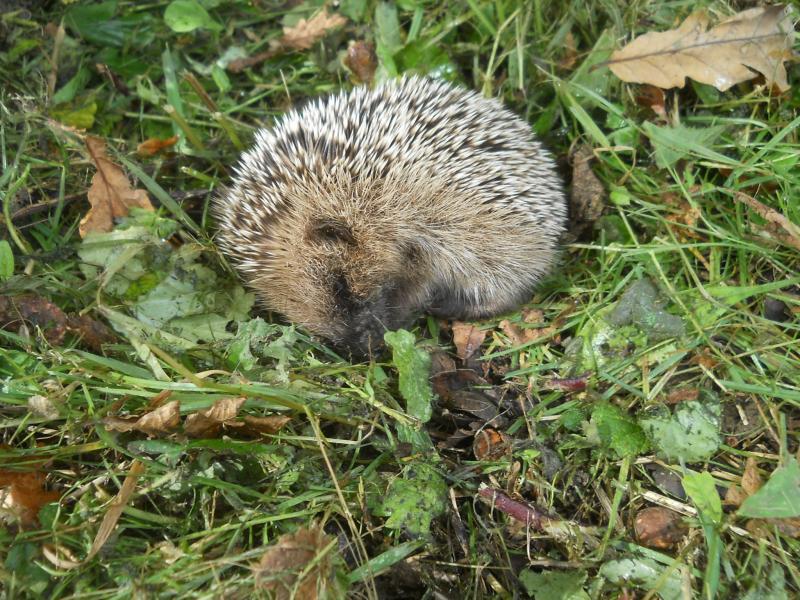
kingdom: Animalia
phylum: Chordata
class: Mammalia
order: Erinaceomorpha
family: Erinaceidae
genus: Erinaceus
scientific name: Erinaceus europaeus
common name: West european hedgehog
